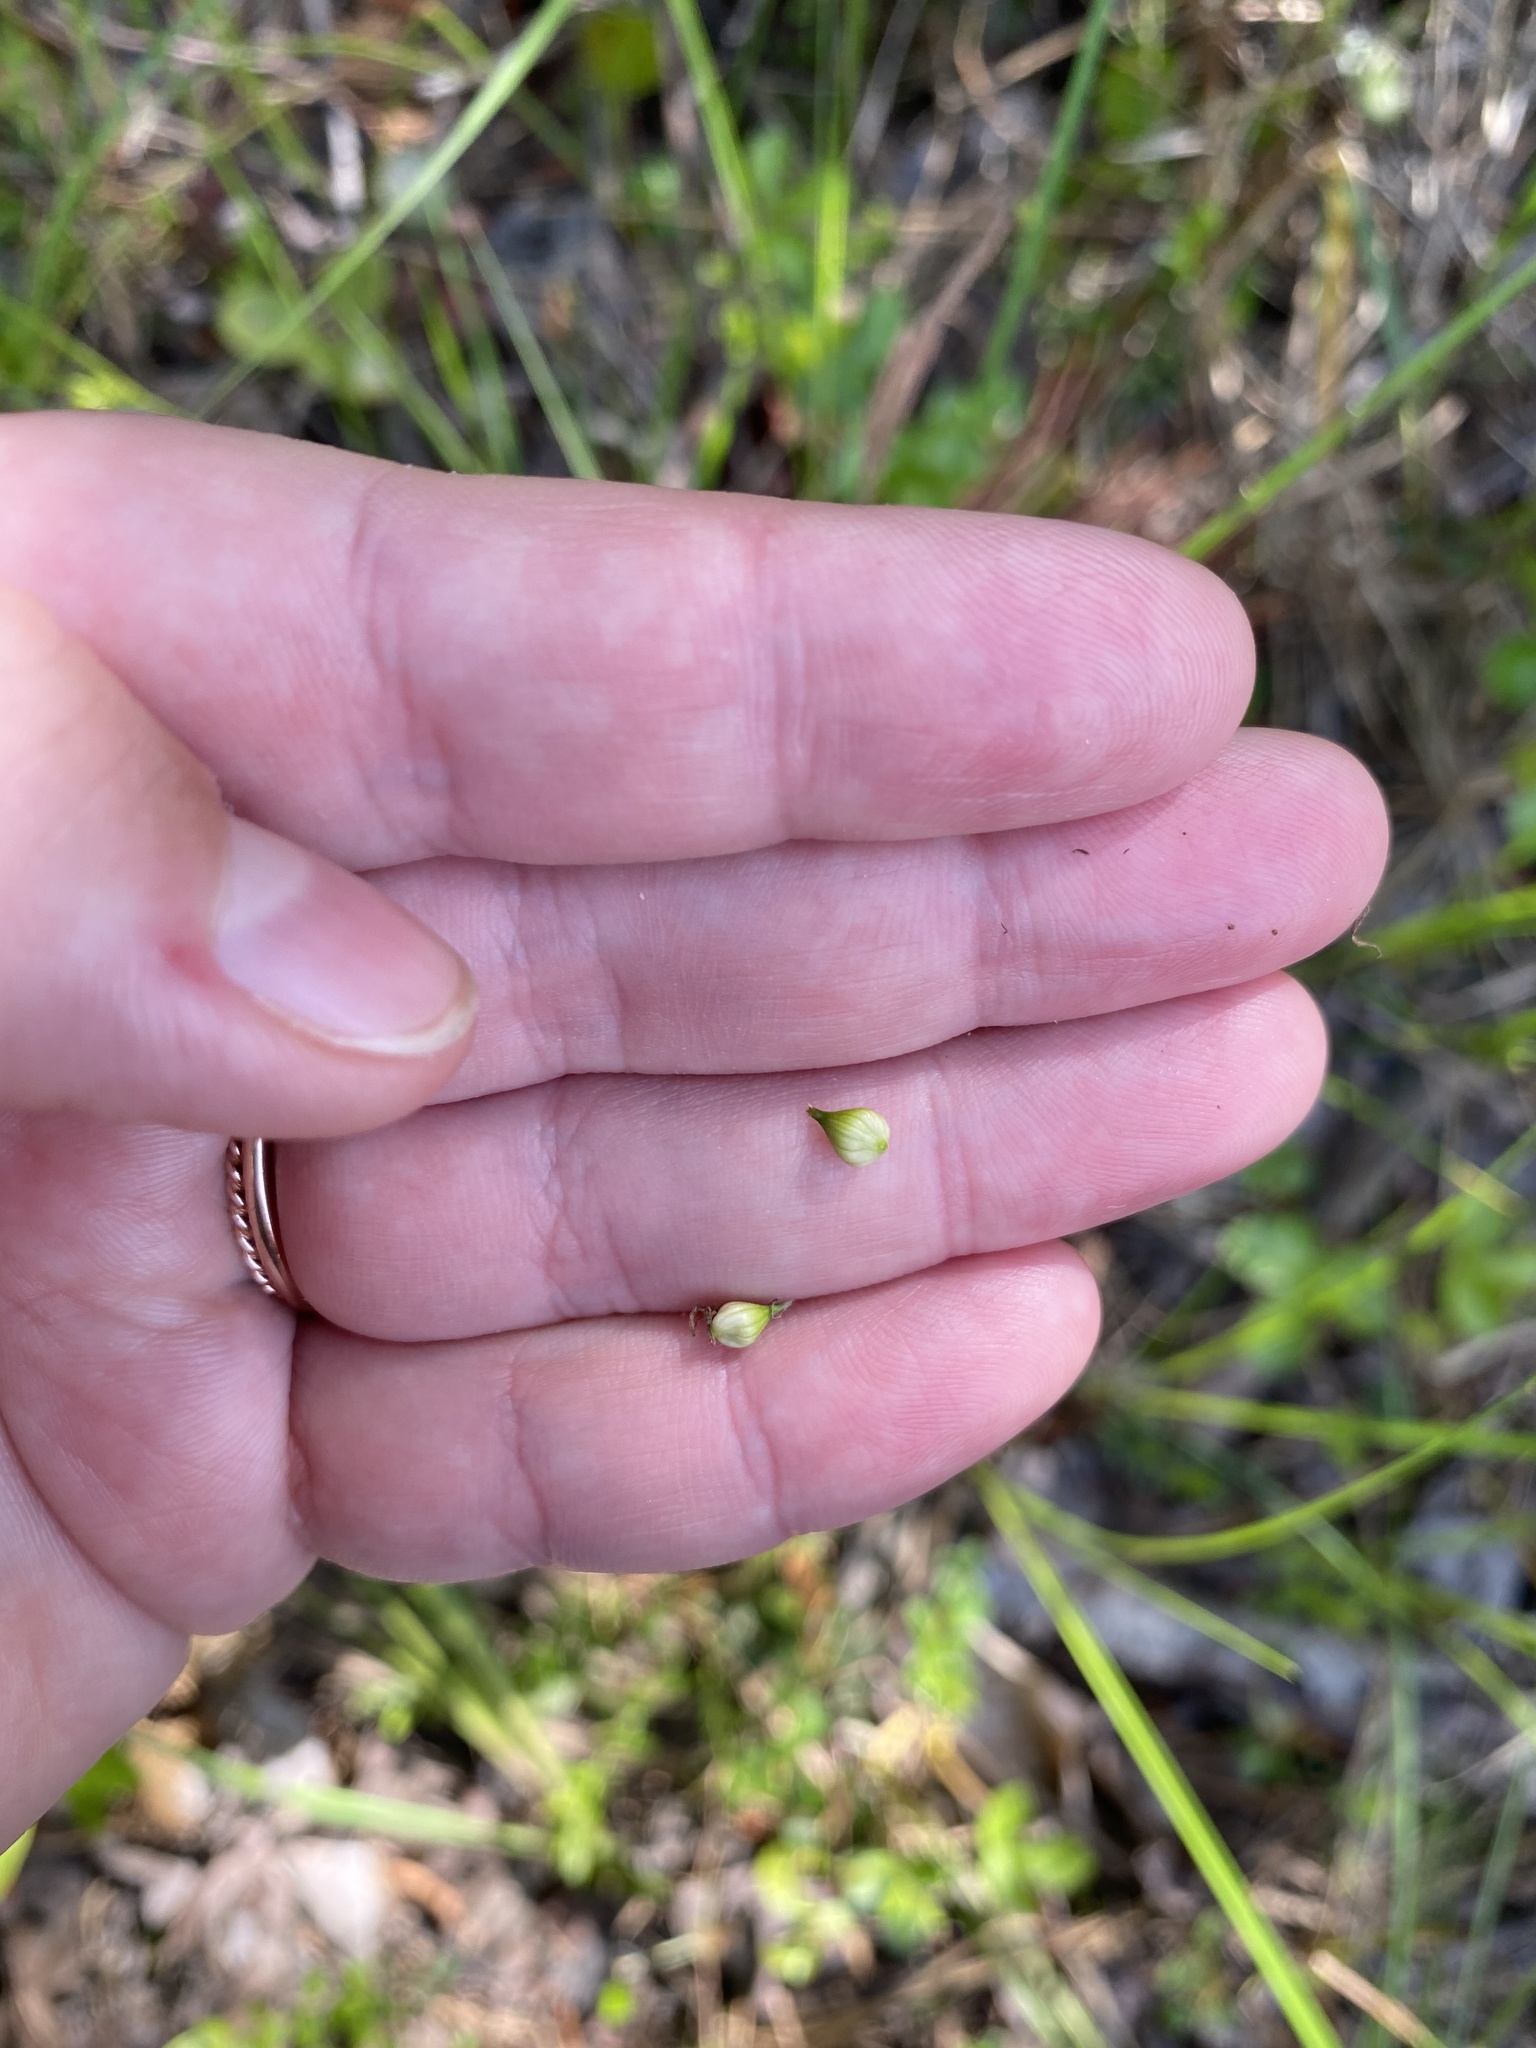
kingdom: Plantae
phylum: Tracheophyta
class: Liliopsida
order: Poales
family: Cyperaceae
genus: Carex
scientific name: Carex striata
